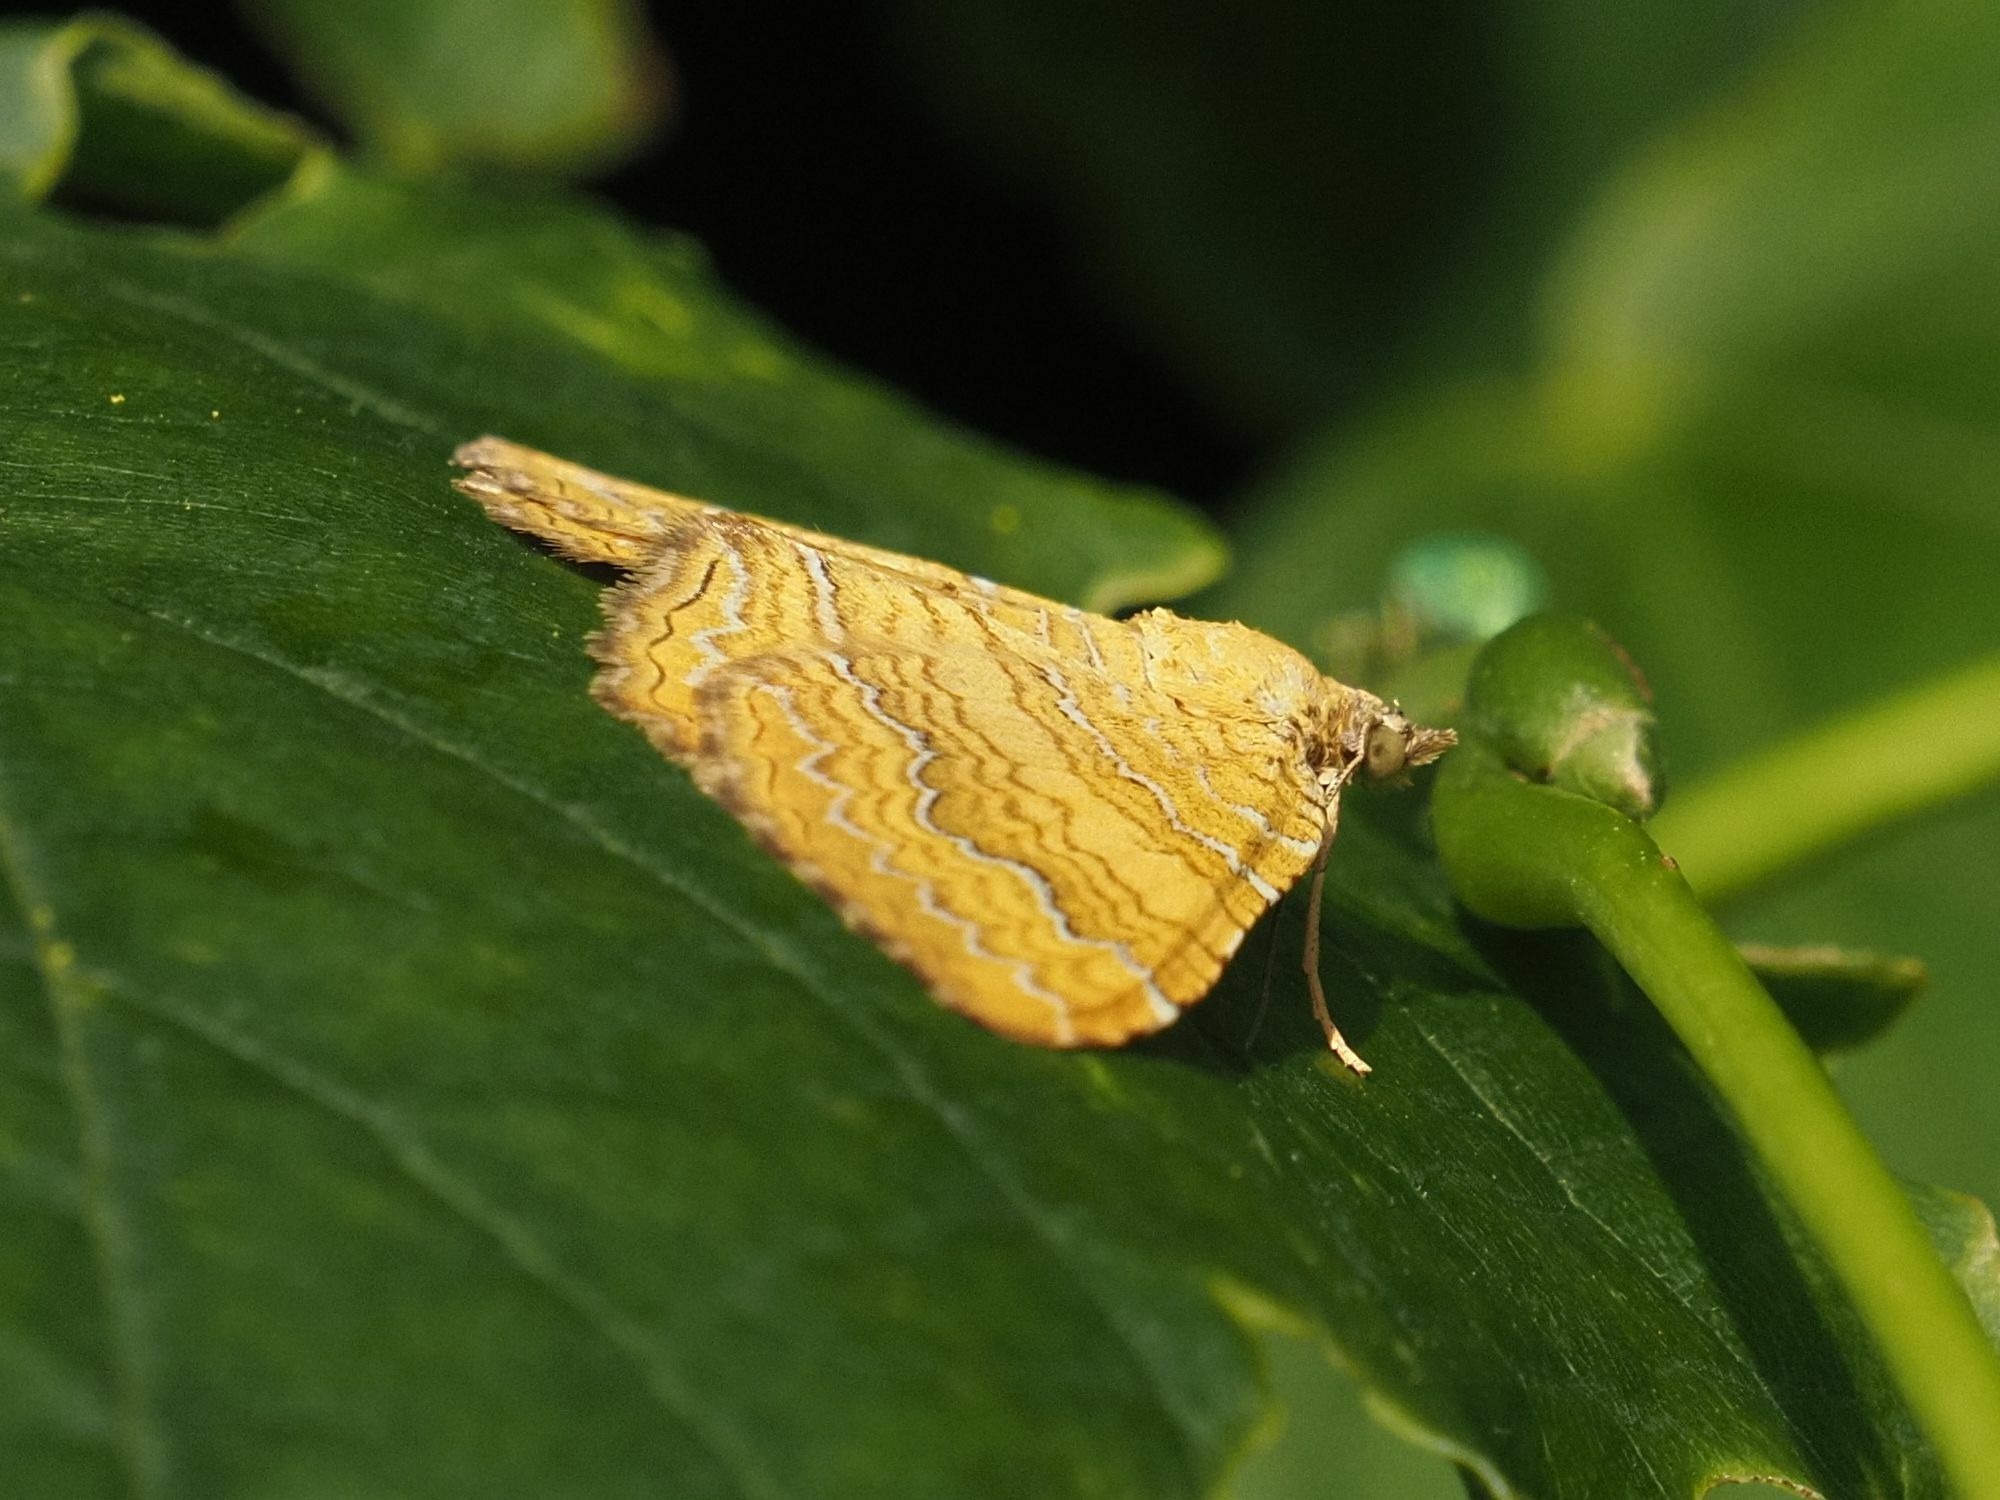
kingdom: Animalia
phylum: Arthropoda
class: Insecta
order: Lepidoptera
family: Geometridae
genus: Camptogramma
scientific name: Camptogramma bilineata
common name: Yellow shell
